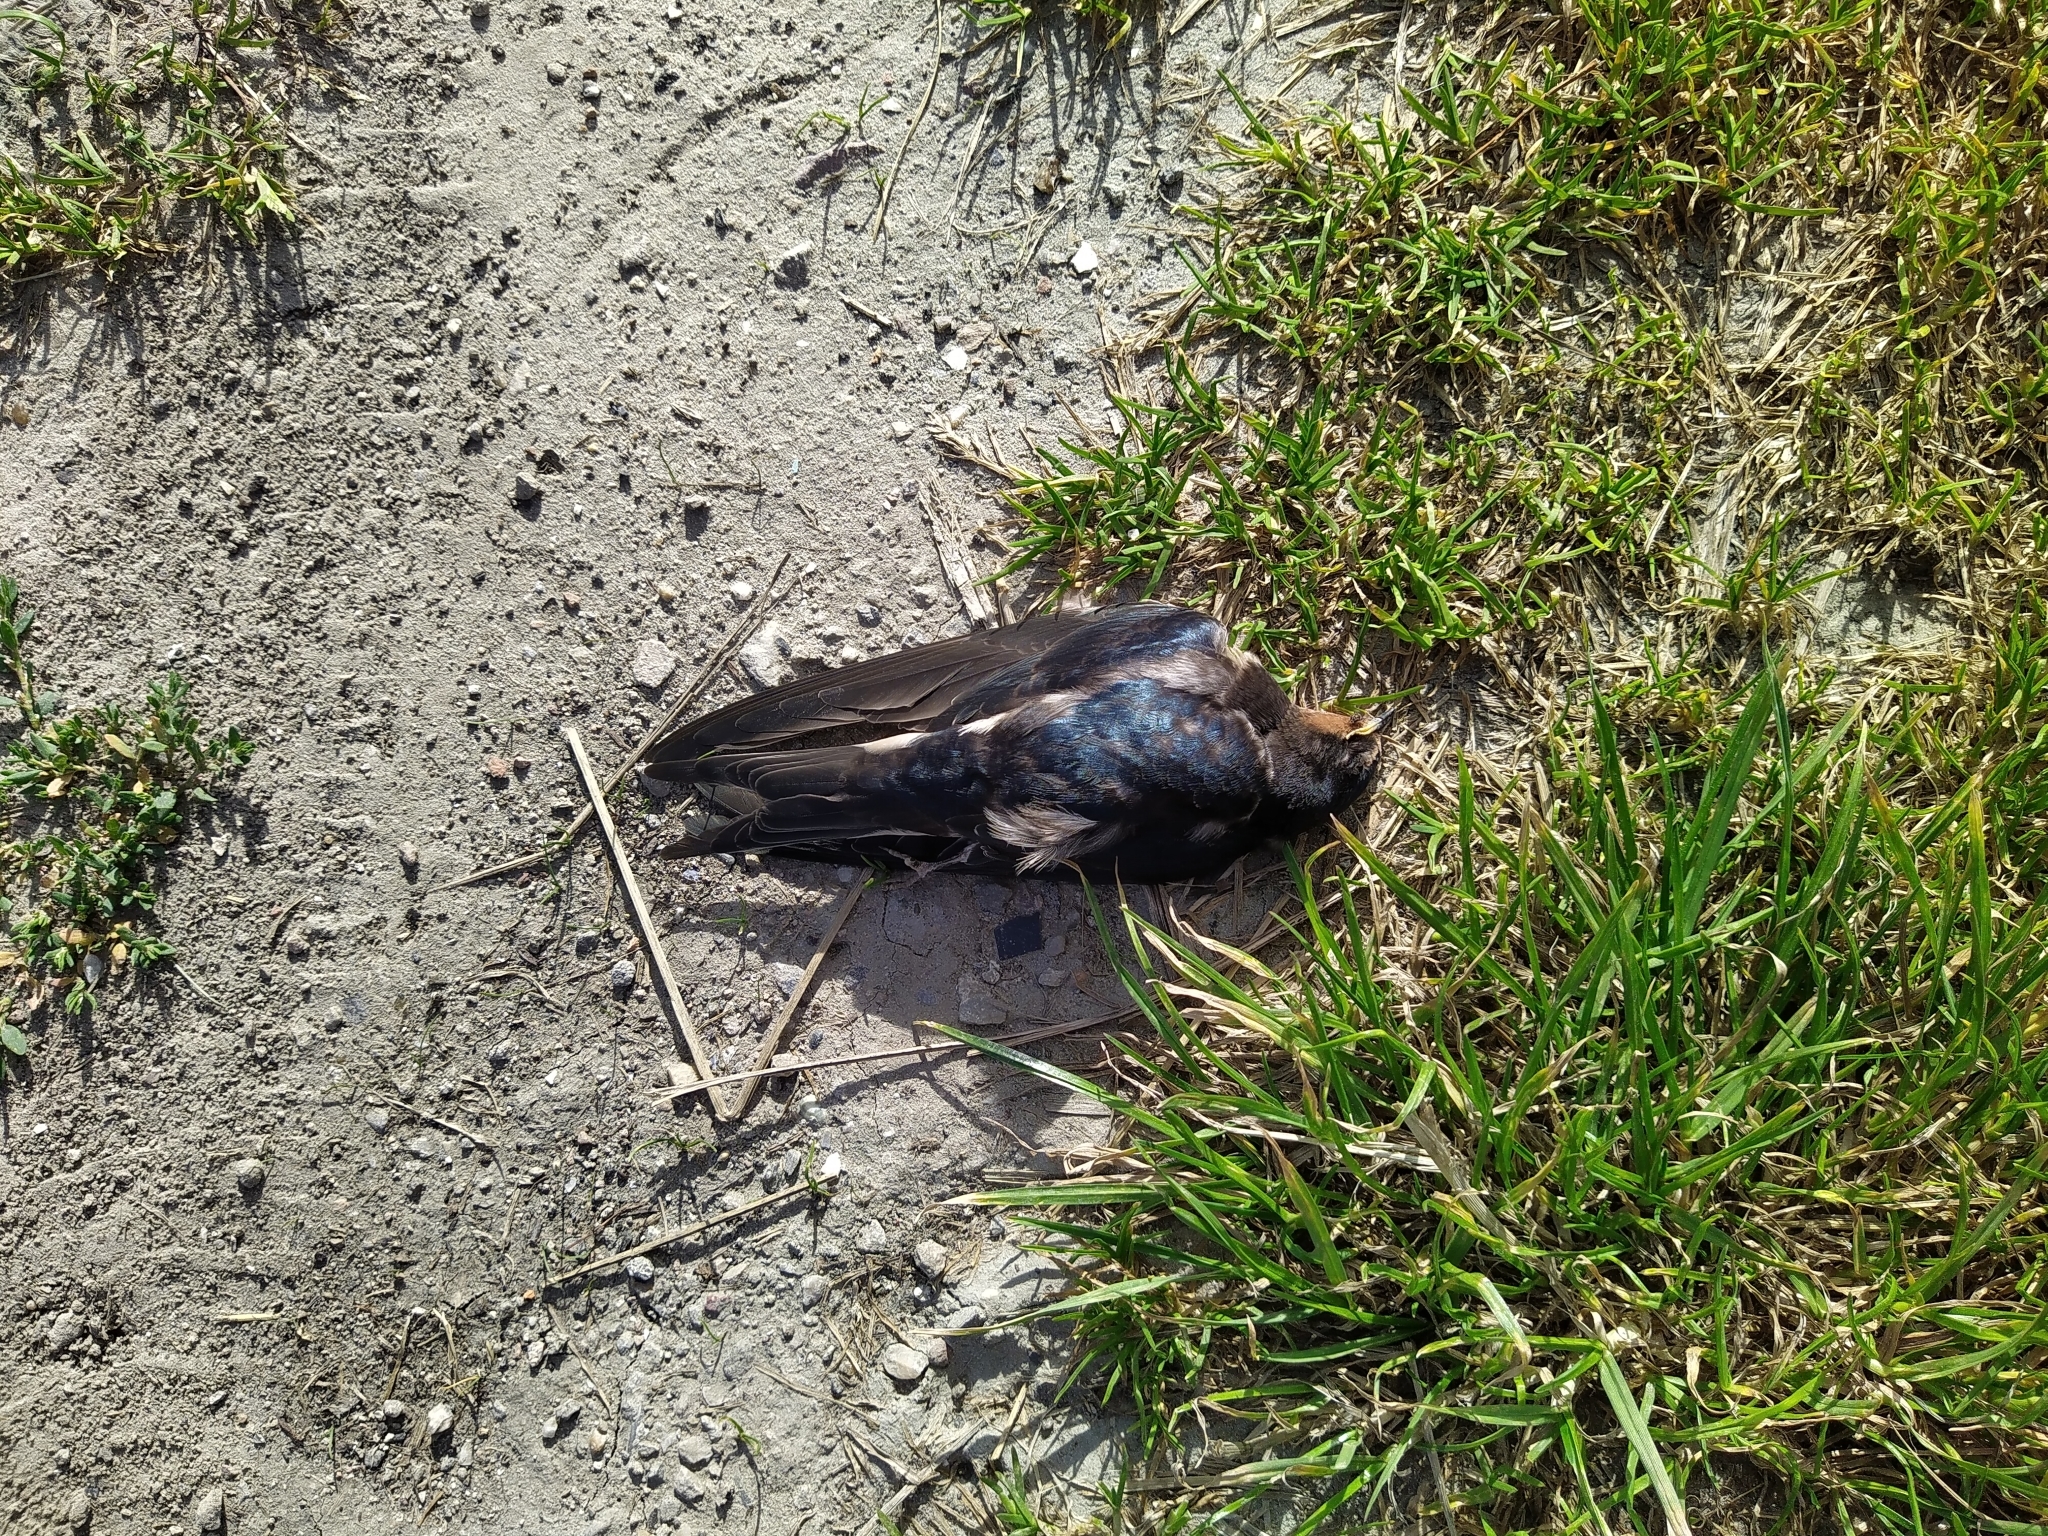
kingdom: Animalia
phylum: Chordata
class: Aves
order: Passeriformes
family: Hirundinidae
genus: Hirundo
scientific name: Hirundo rustica
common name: Barn swallow
